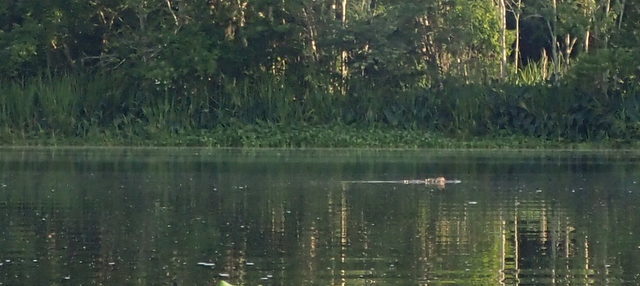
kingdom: Animalia
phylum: Chordata
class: Crocodylia
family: Alligatoridae
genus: Alligator
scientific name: Alligator mississippiensis
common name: American alligator
